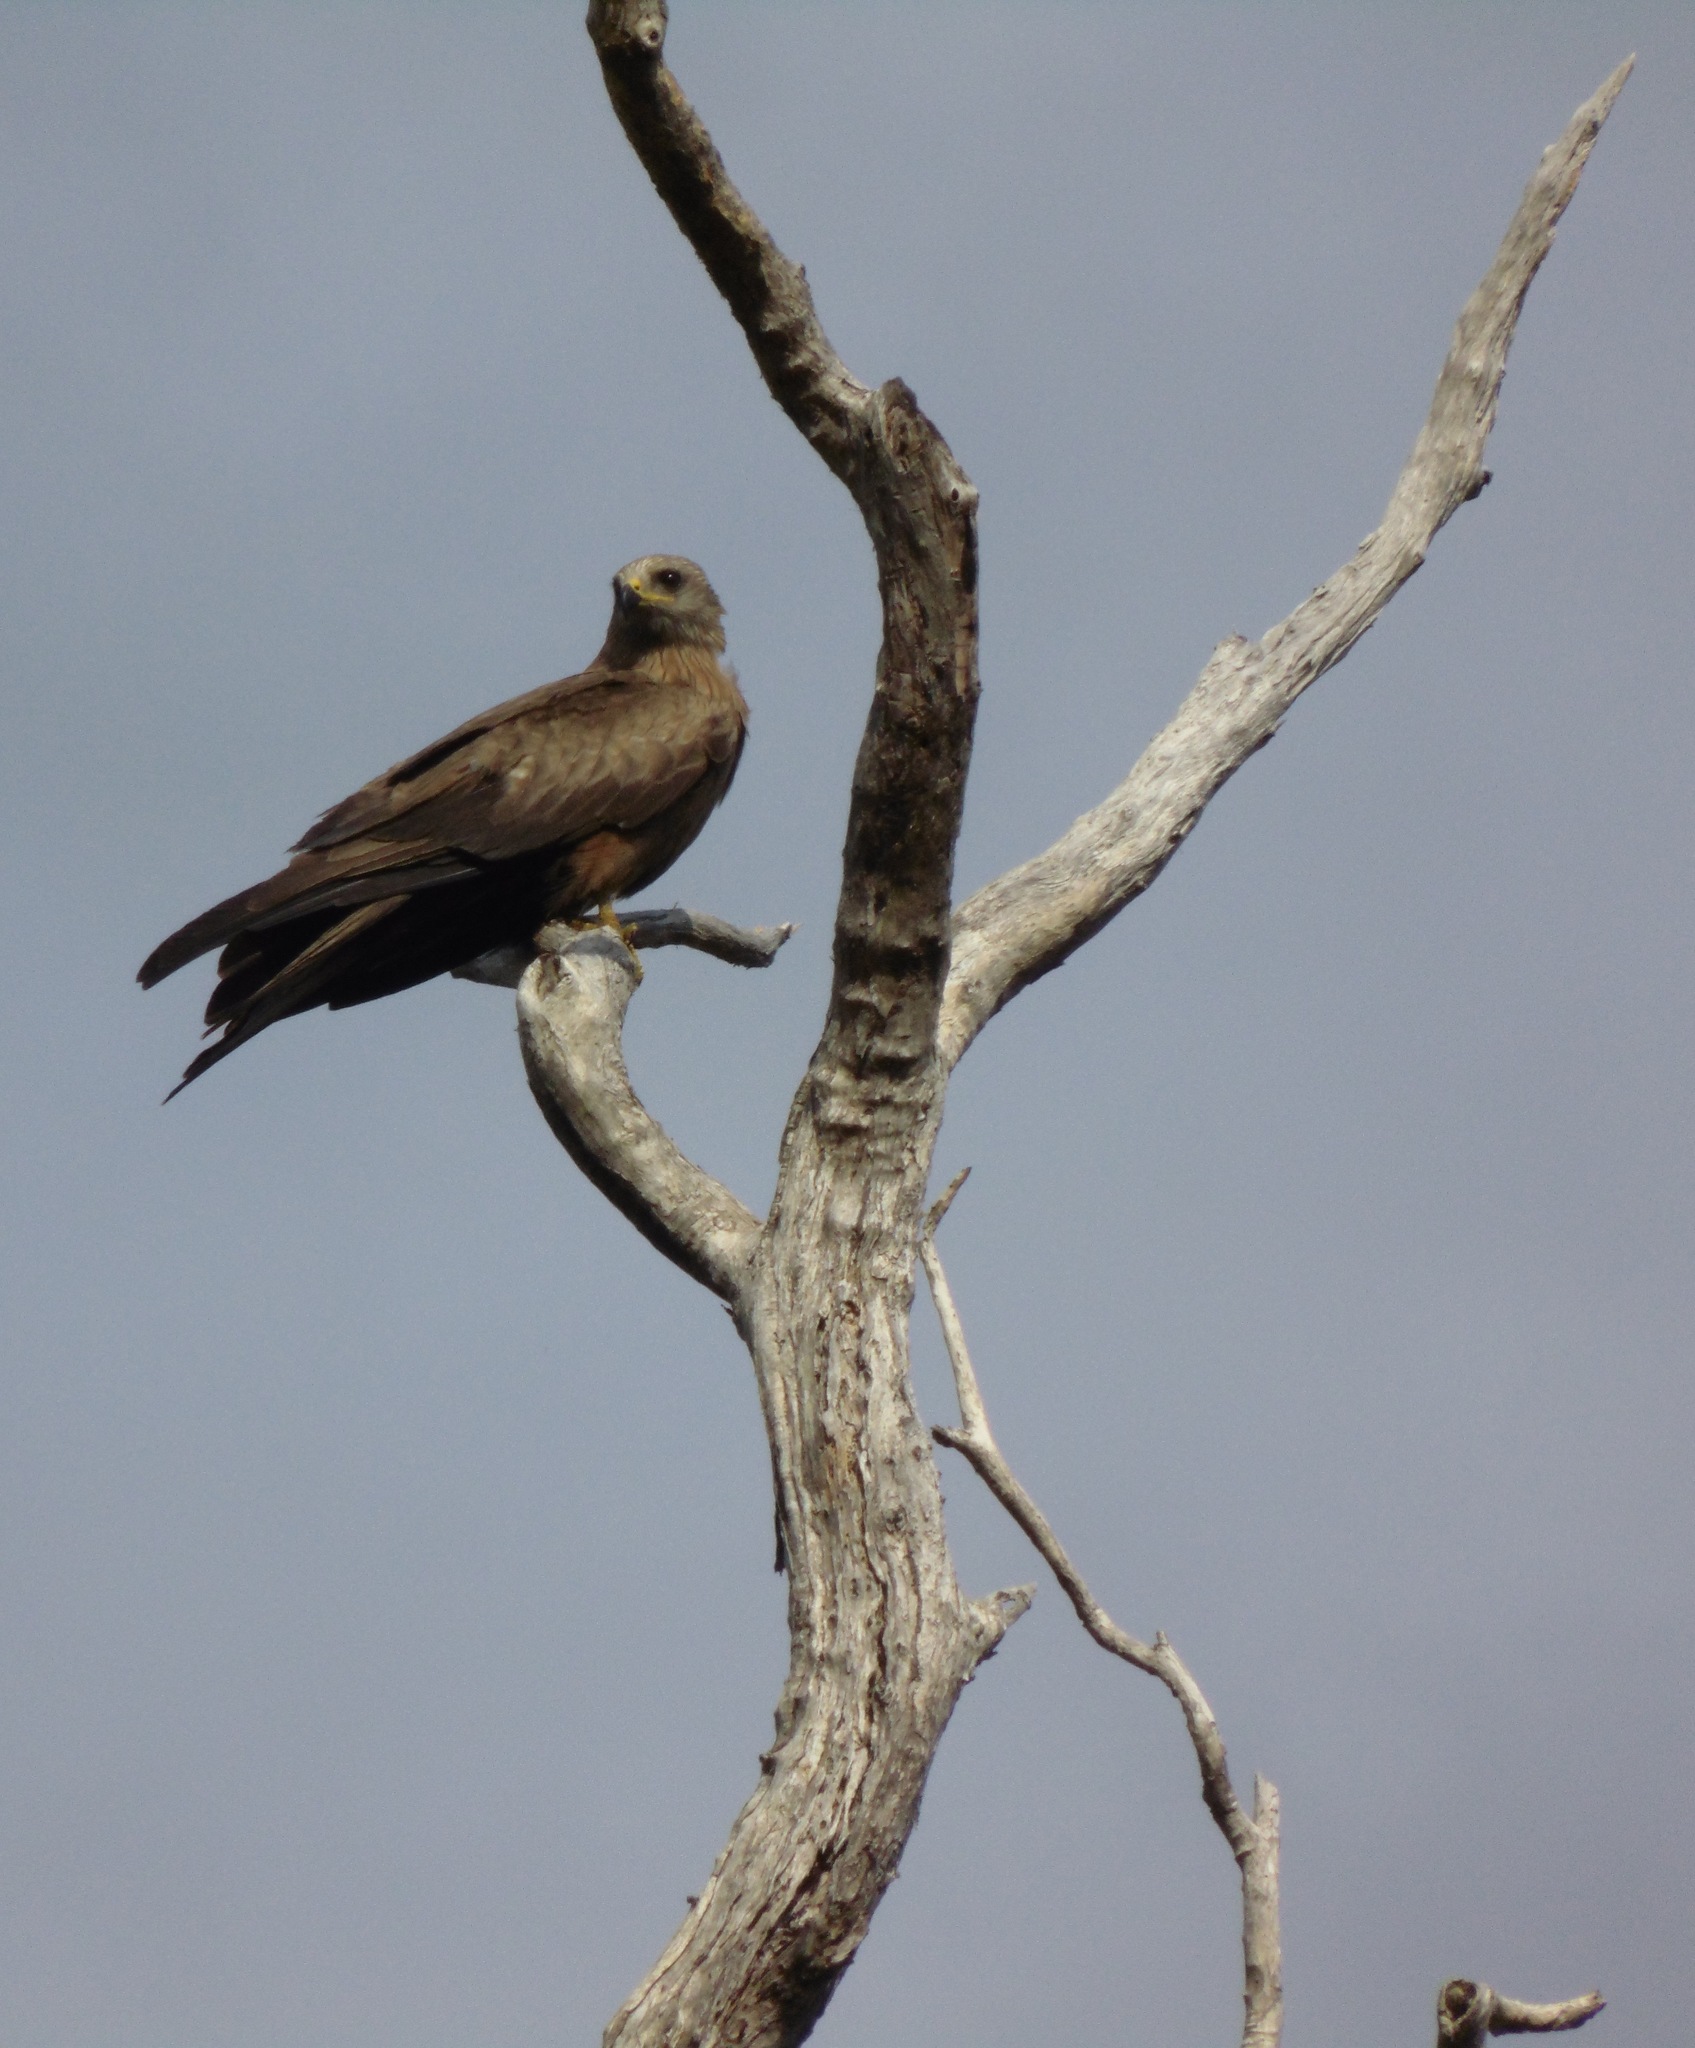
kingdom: Animalia
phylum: Chordata
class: Aves
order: Accipitriformes
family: Accipitridae
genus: Milvus
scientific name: Milvus migrans
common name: Black kite
